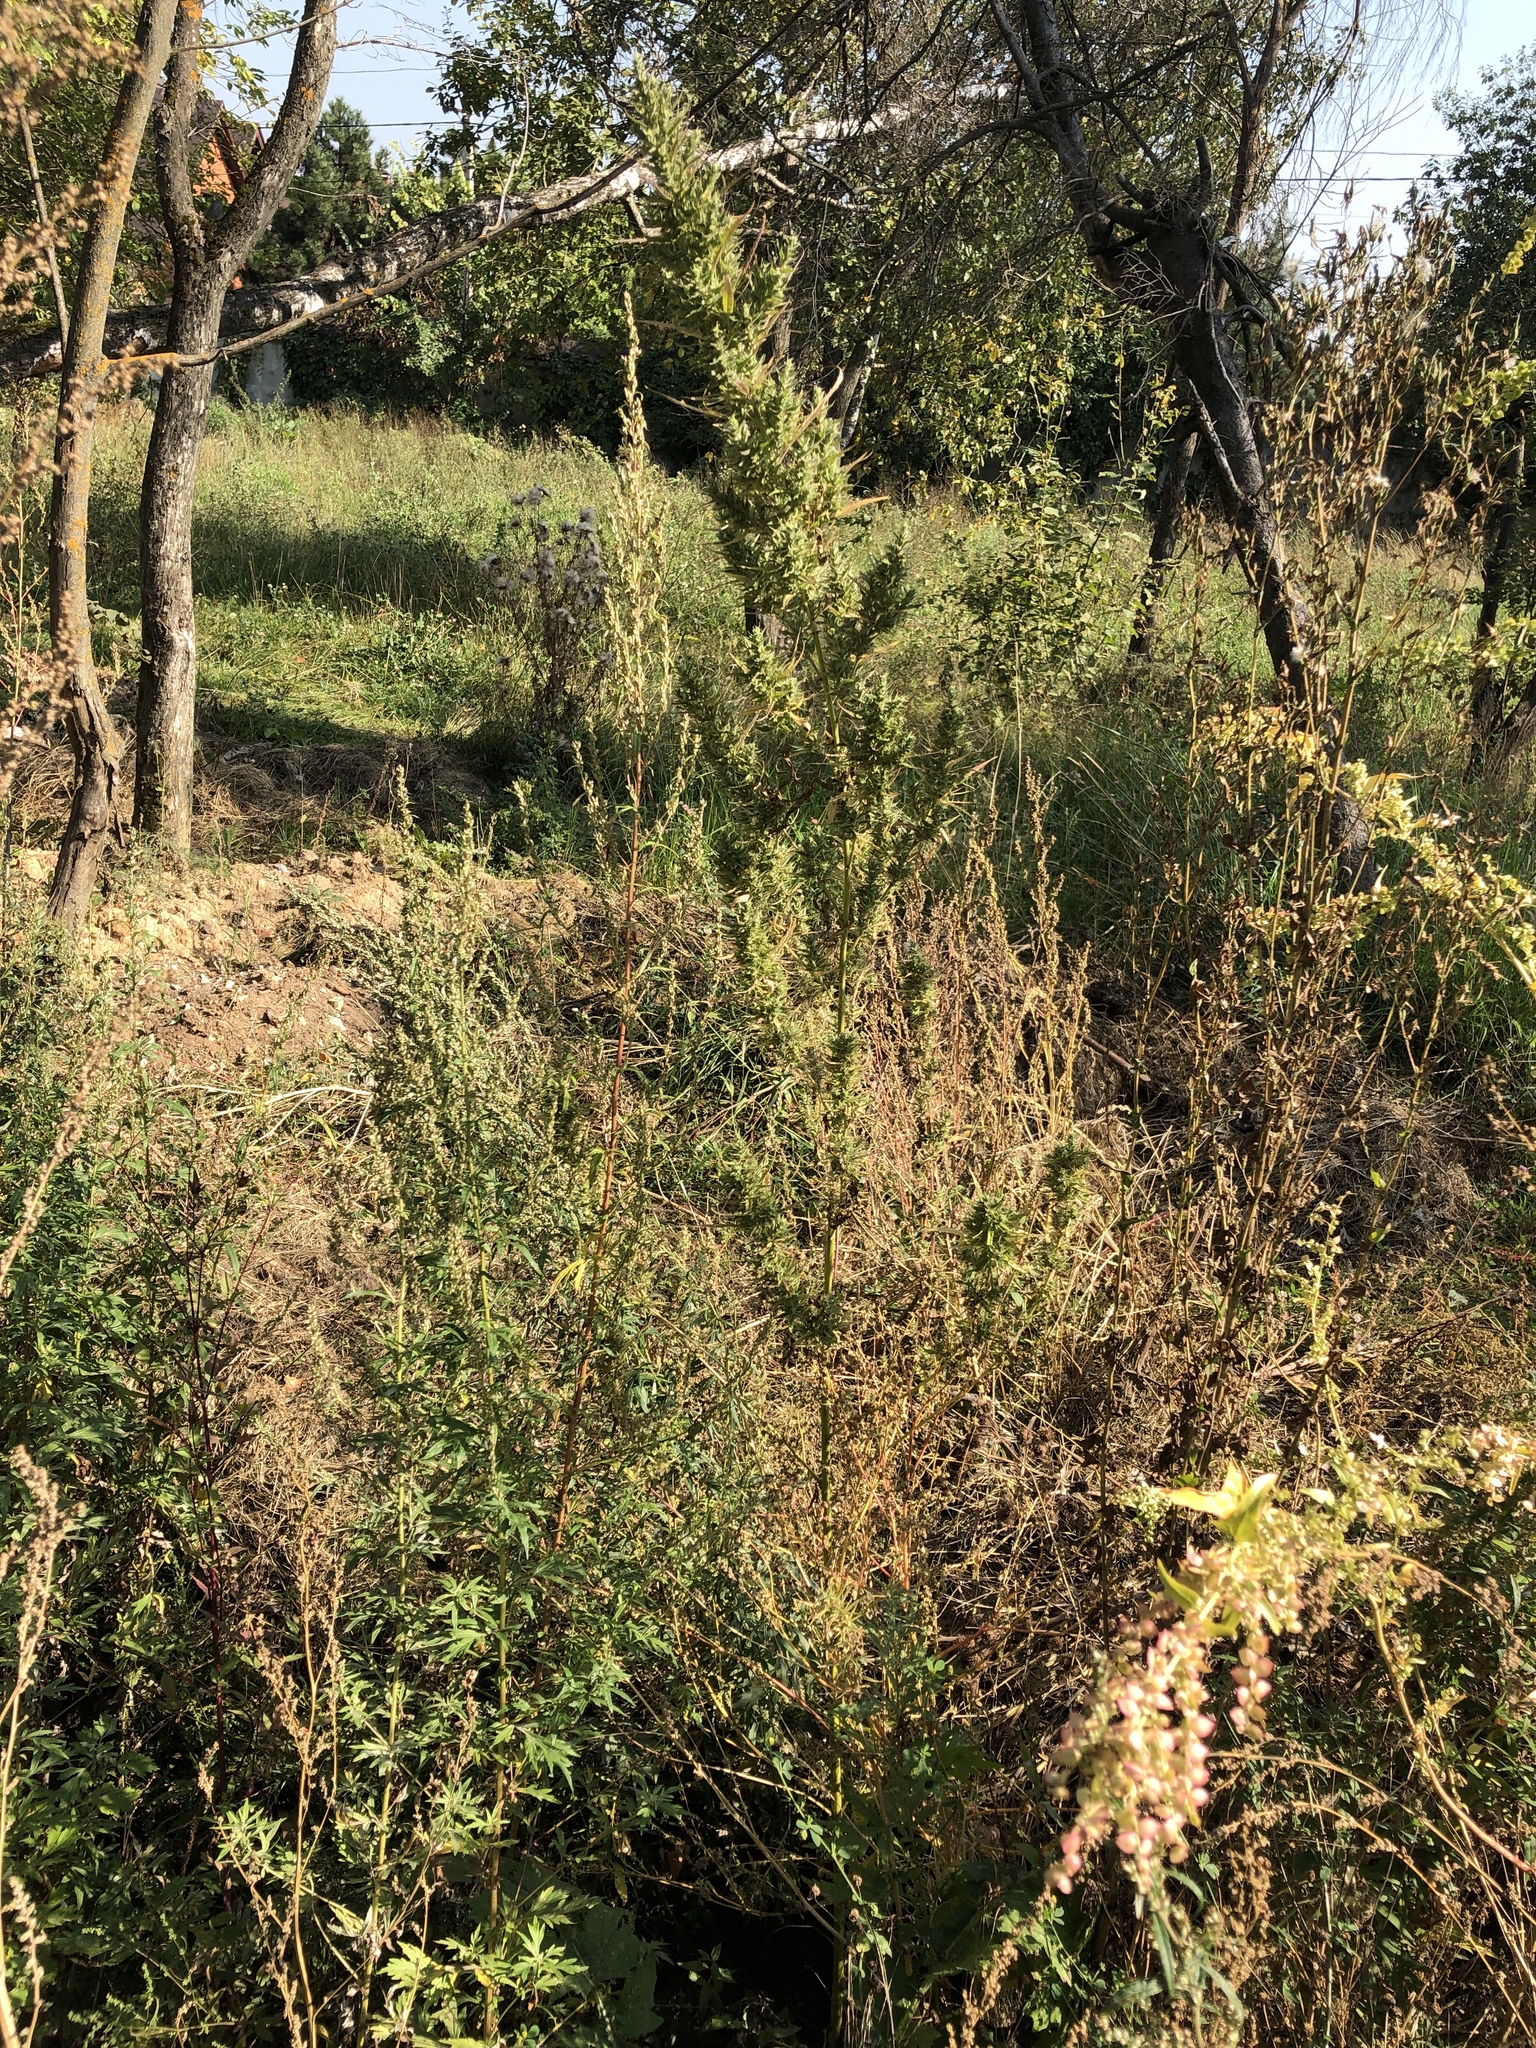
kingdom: Plantae
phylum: Tracheophyta
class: Magnoliopsida
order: Rosales
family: Cannabaceae
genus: Cannabis
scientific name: Cannabis sativa
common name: Hemp
